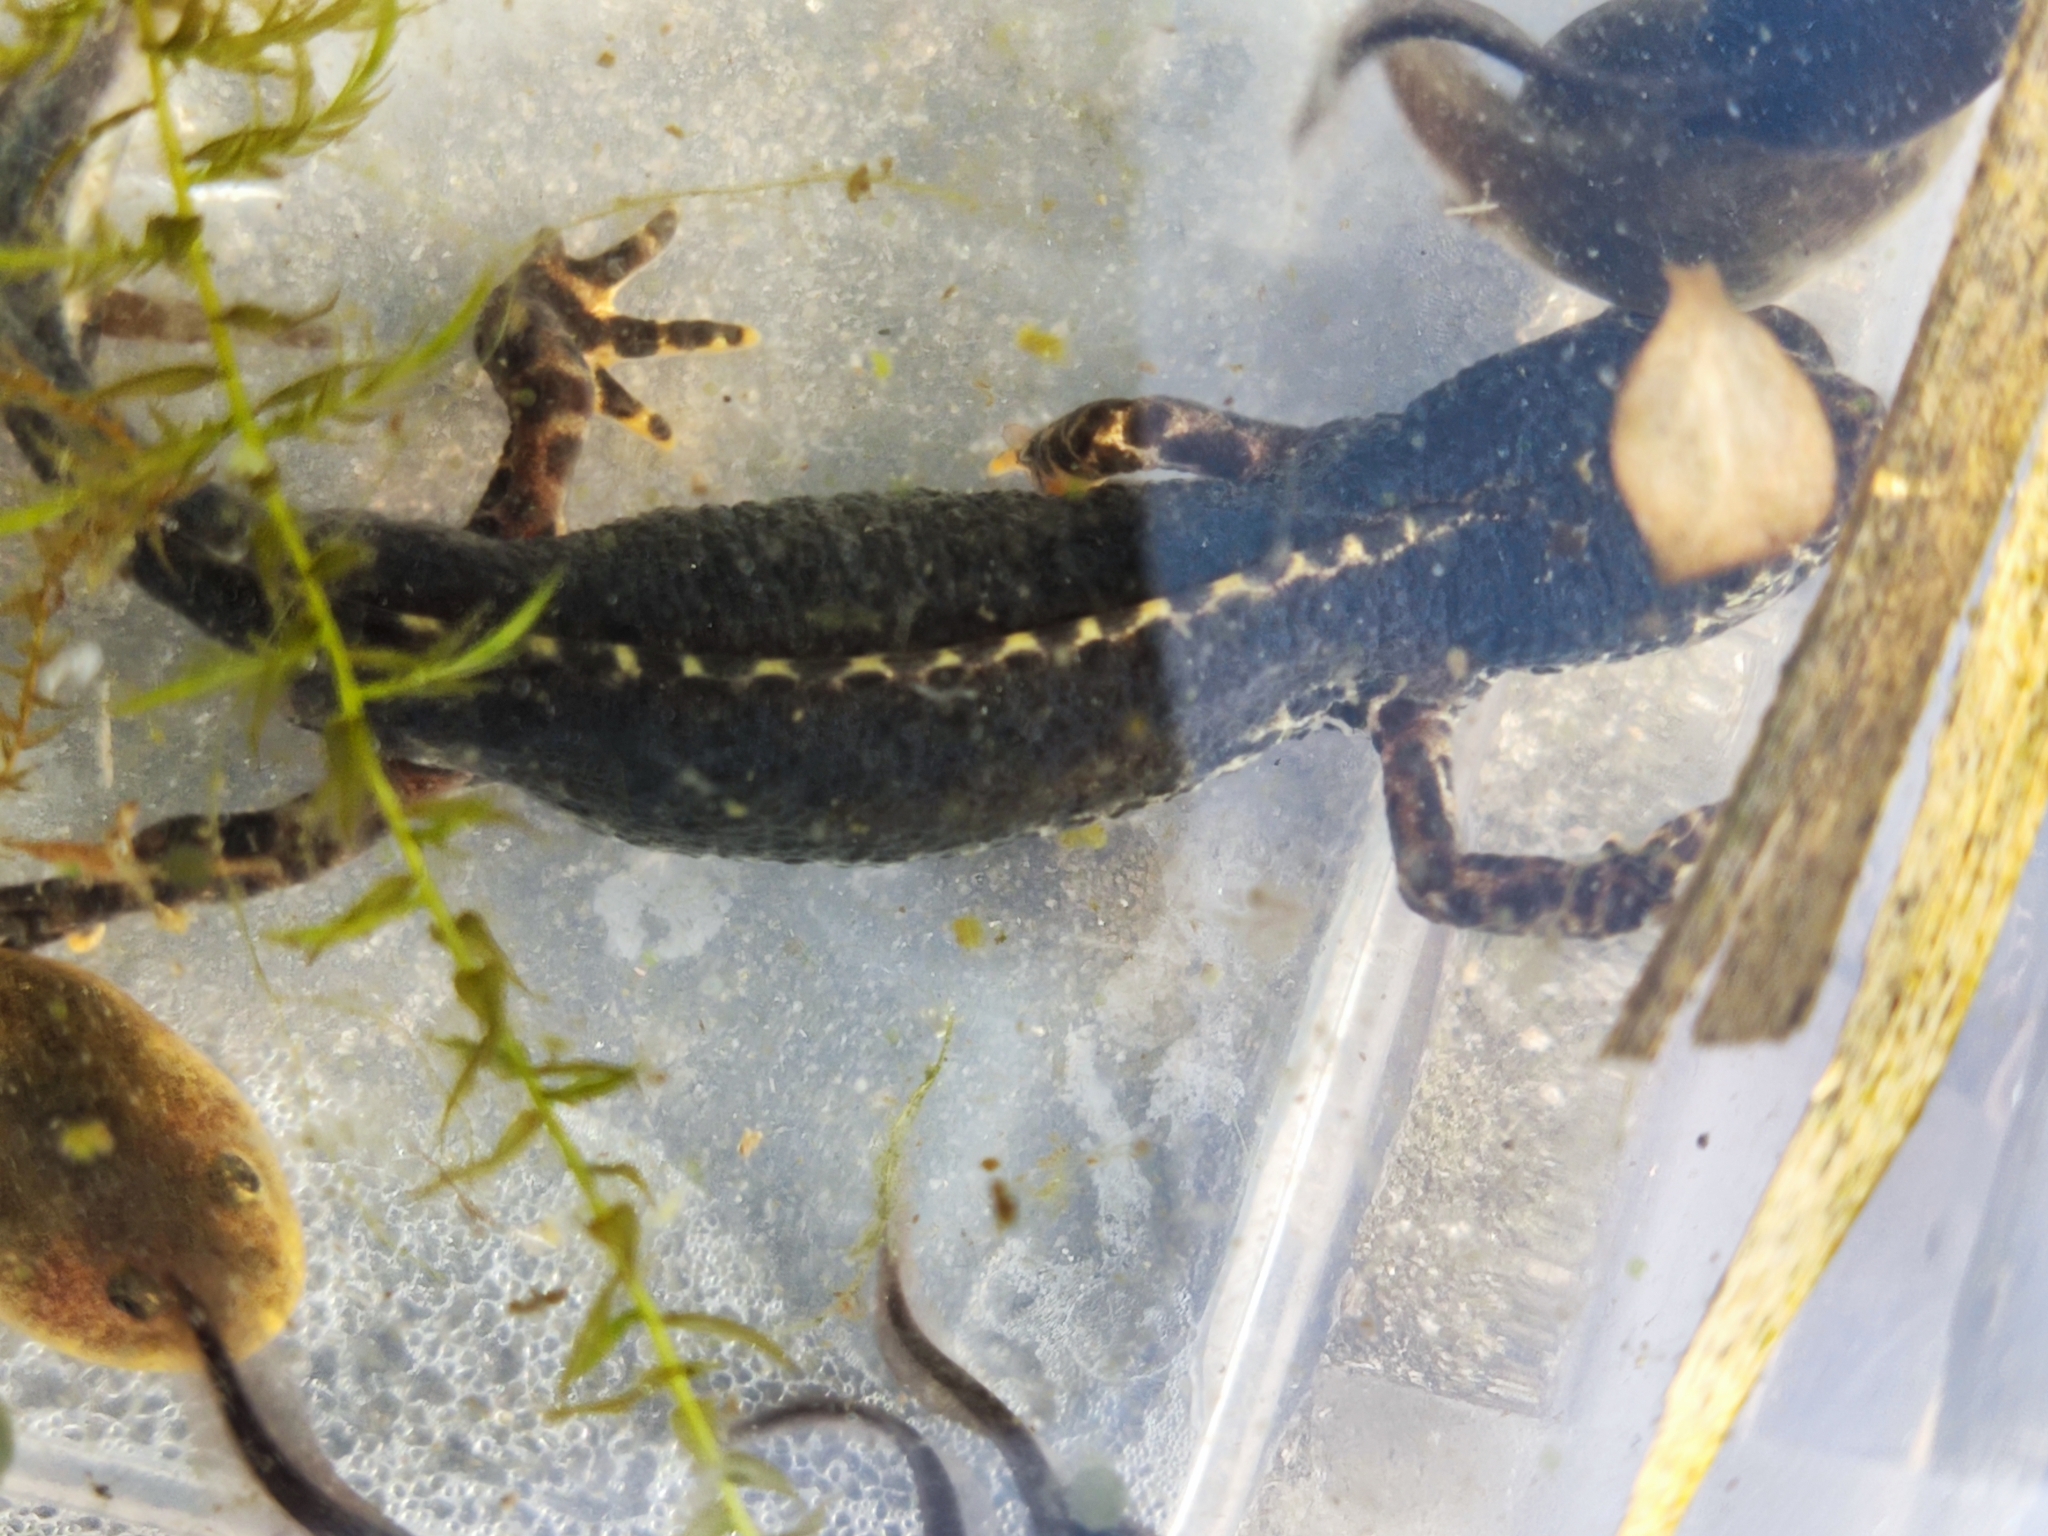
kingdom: Animalia
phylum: Chordata
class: Amphibia
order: Caudata
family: Salamandridae
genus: Ichthyosaura
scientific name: Ichthyosaura alpestris
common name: Alpine newt
